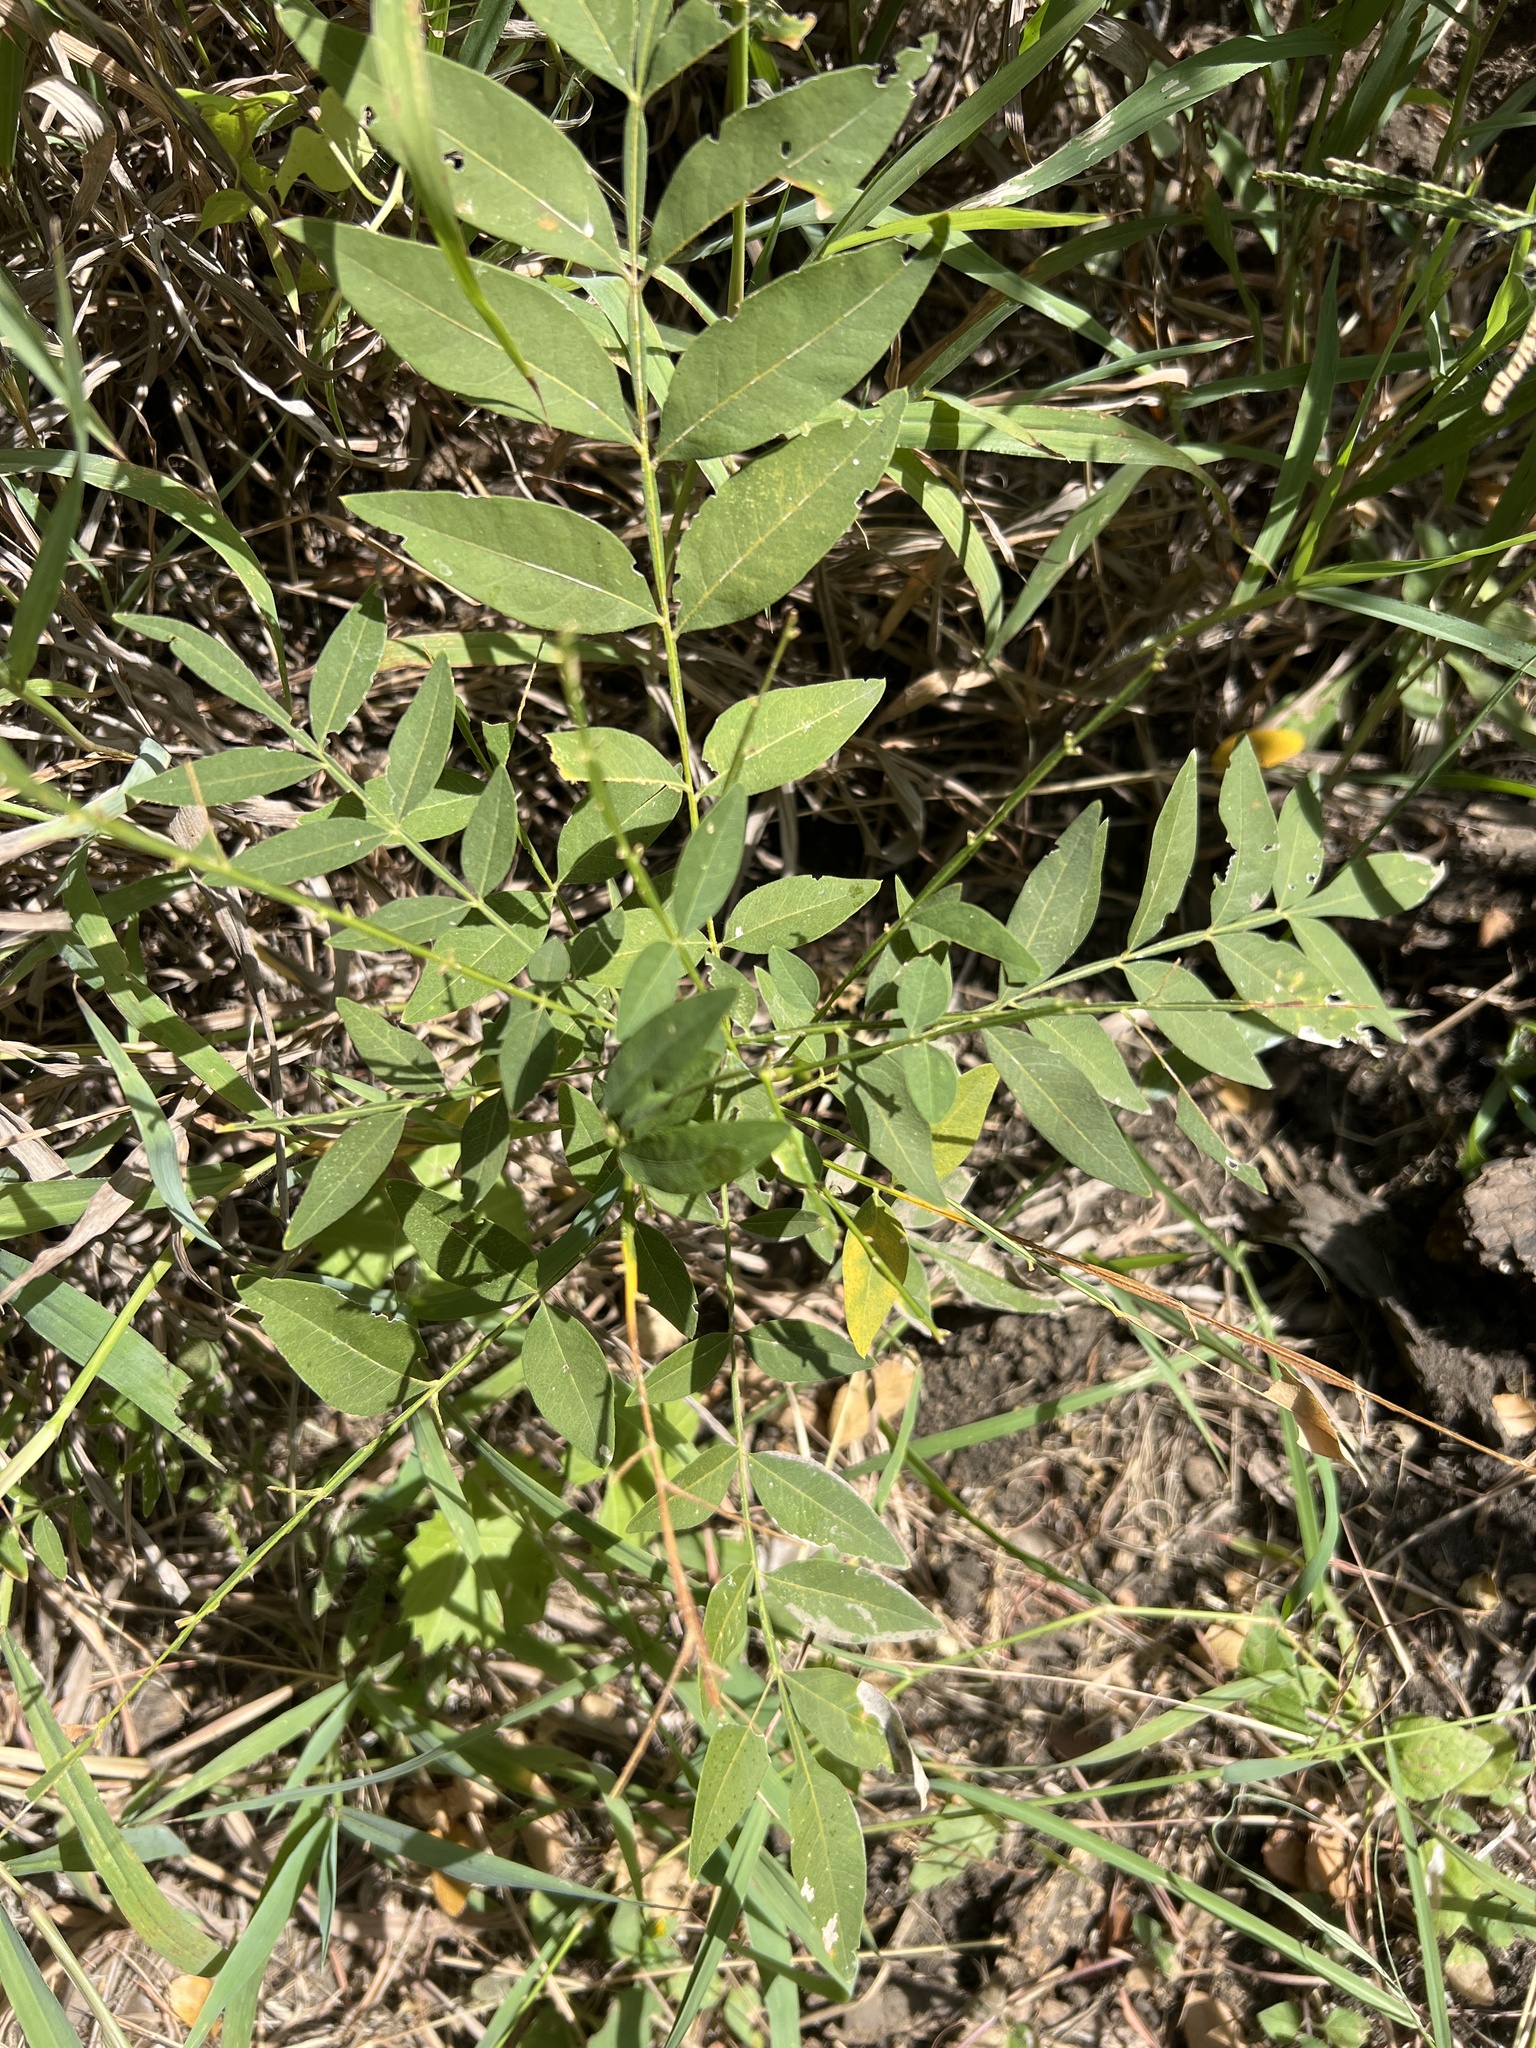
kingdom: Plantae
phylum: Tracheophyta
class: Magnoliopsida
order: Sapindales
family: Sapindaceae
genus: Sapindus
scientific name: Sapindus drummondii
